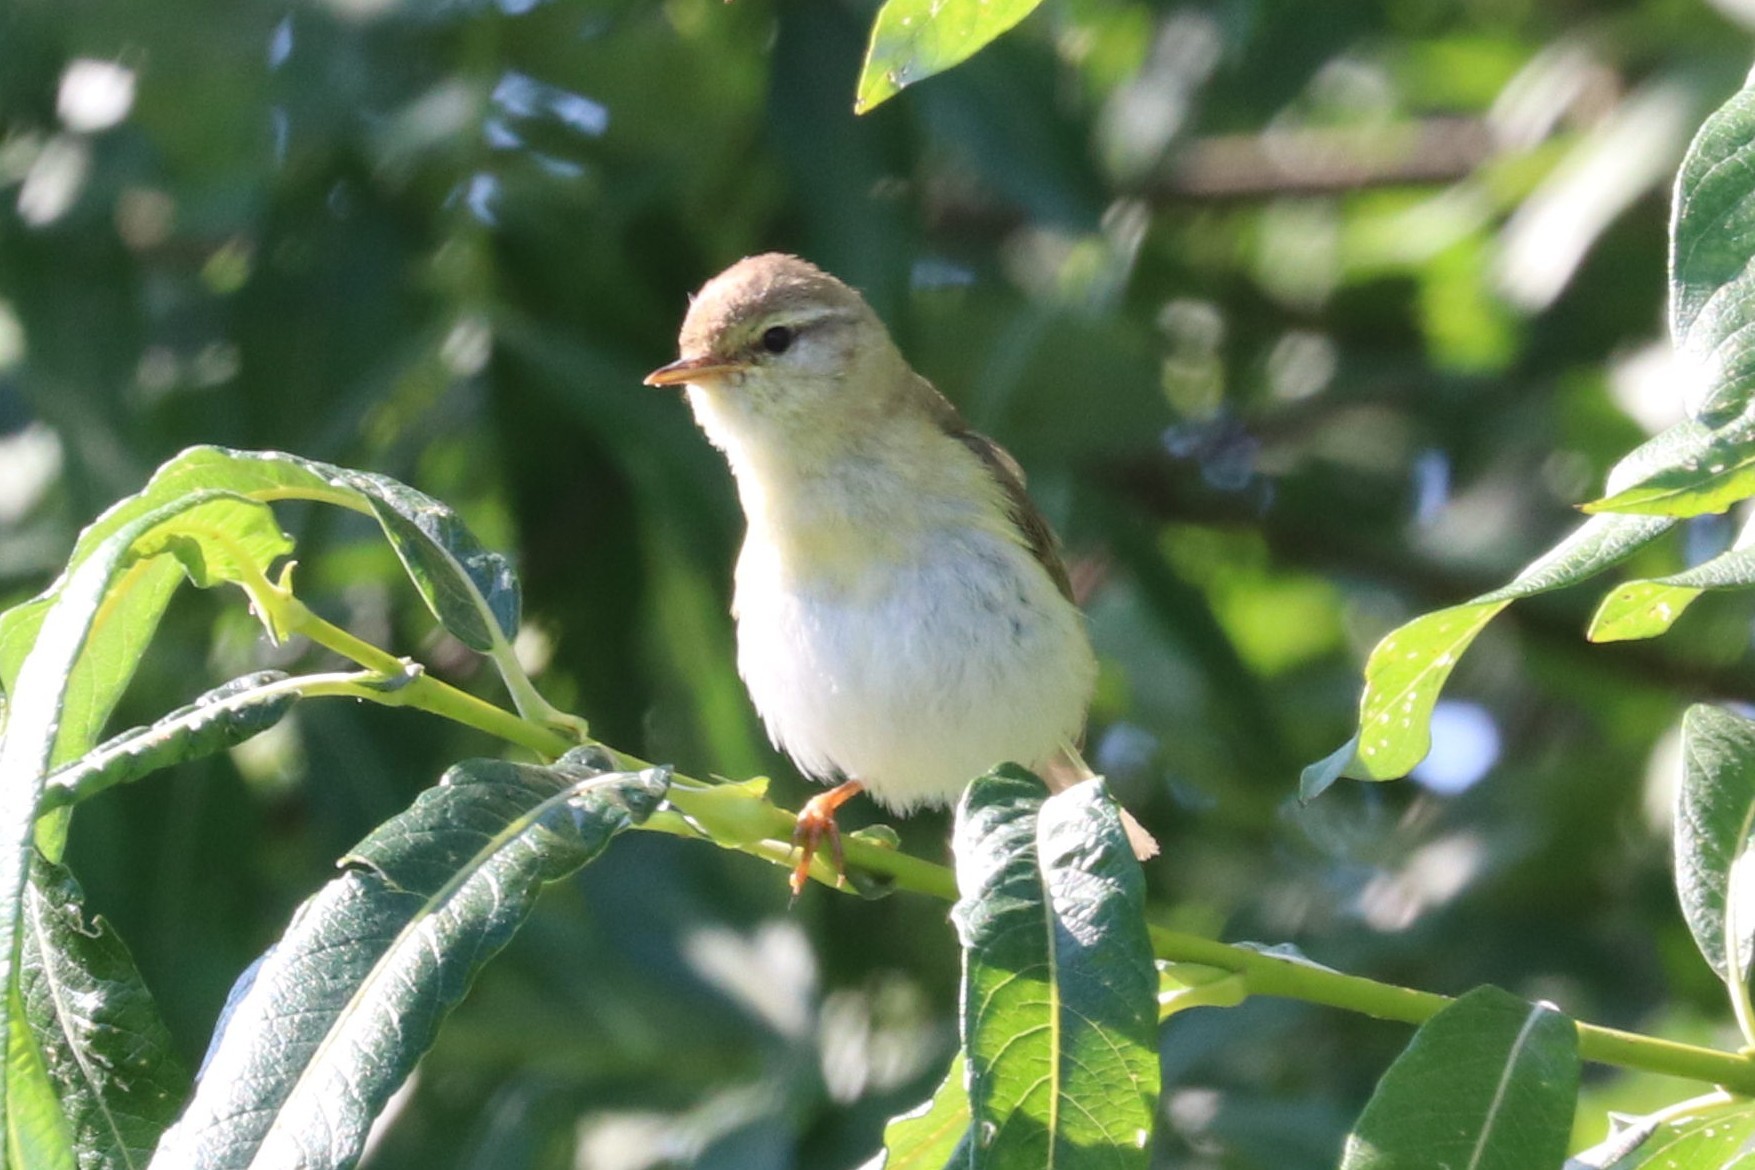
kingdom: Animalia
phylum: Chordata
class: Aves
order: Passeriformes
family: Phylloscopidae
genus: Phylloscopus
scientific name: Phylloscopus trochilus
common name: Willow warbler
